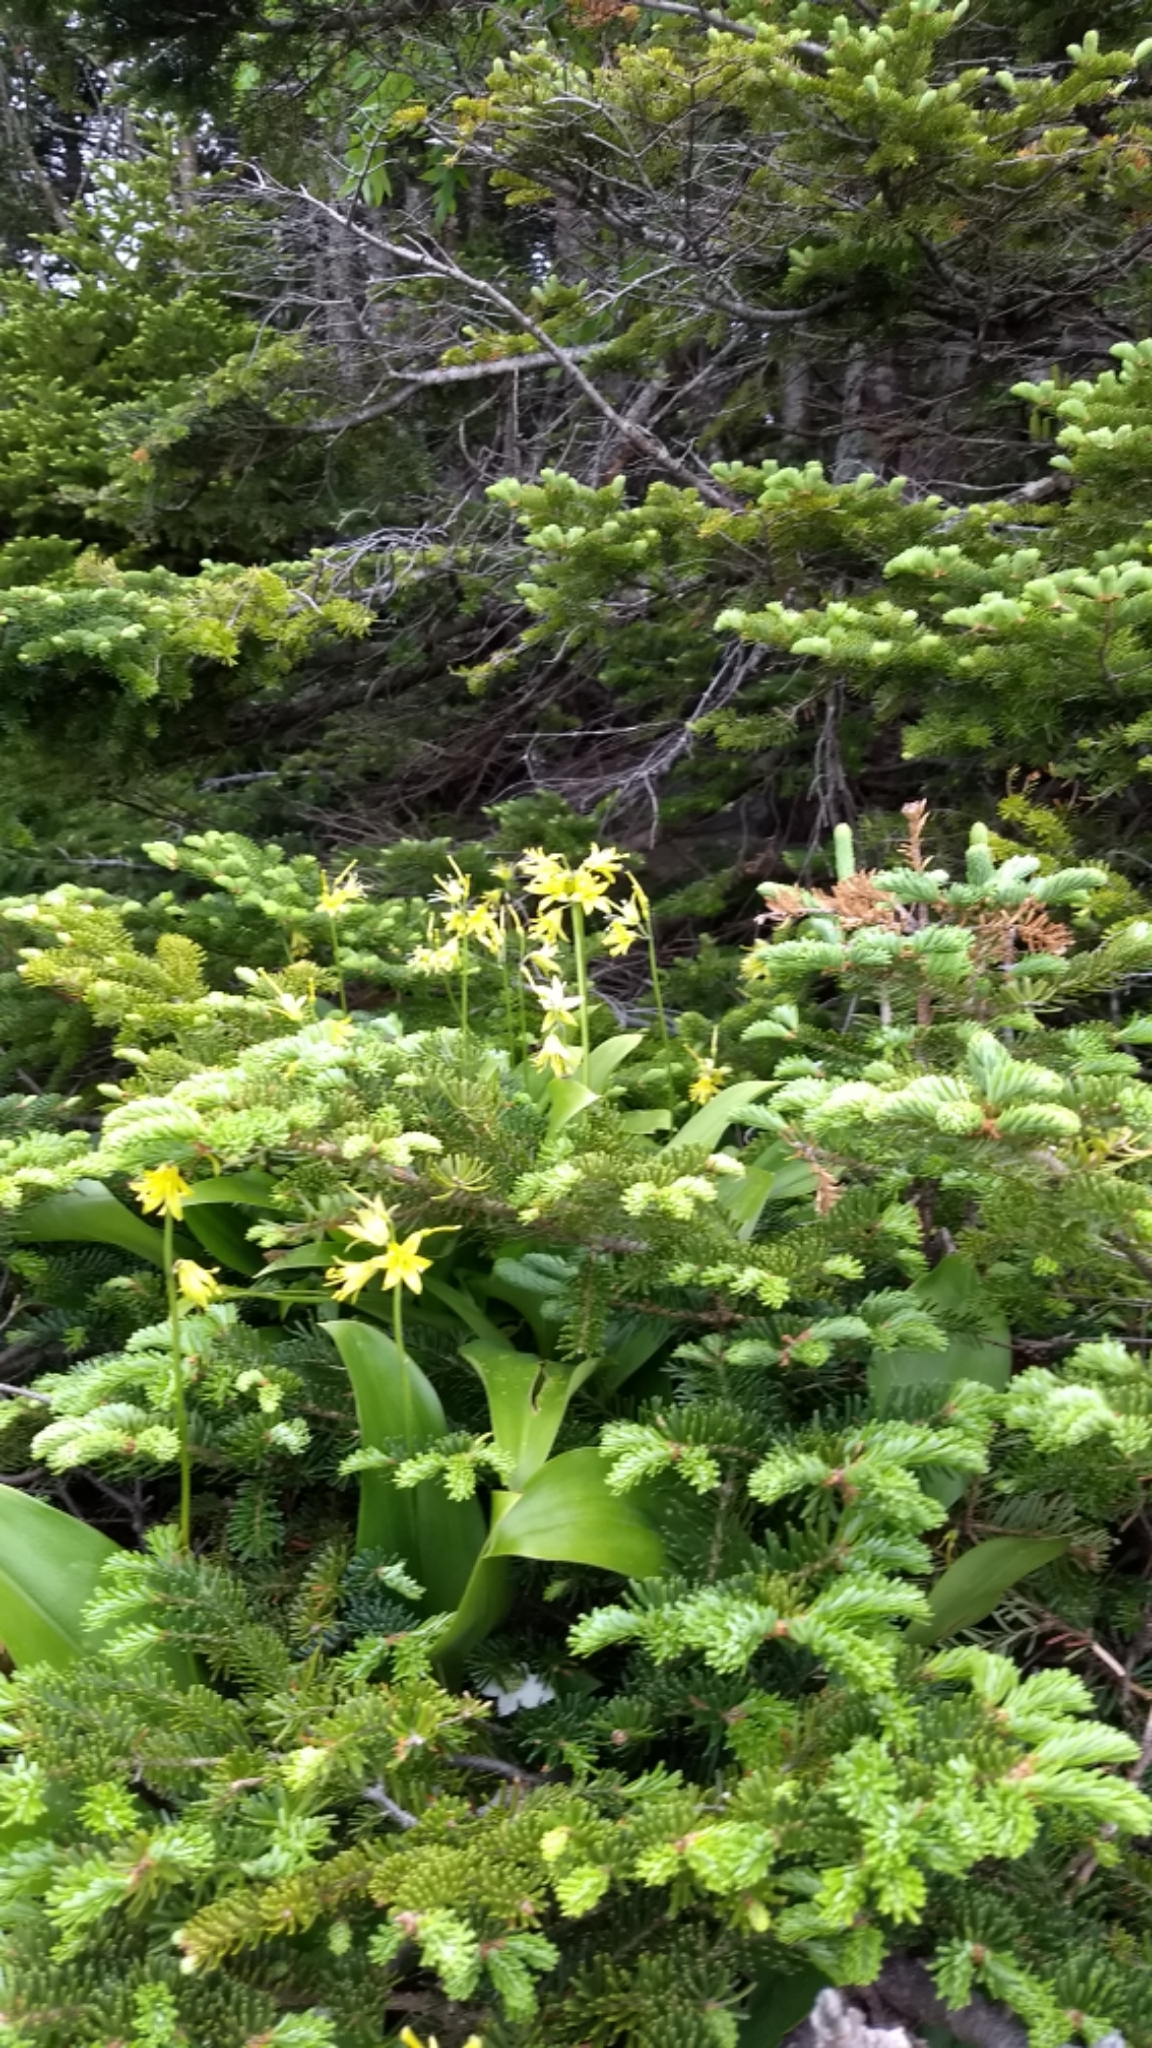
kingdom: Plantae
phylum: Tracheophyta
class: Liliopsida
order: Liliales
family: Liliaceae
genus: Clintonia
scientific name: Clintonia borealis
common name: Yellow clintonia
